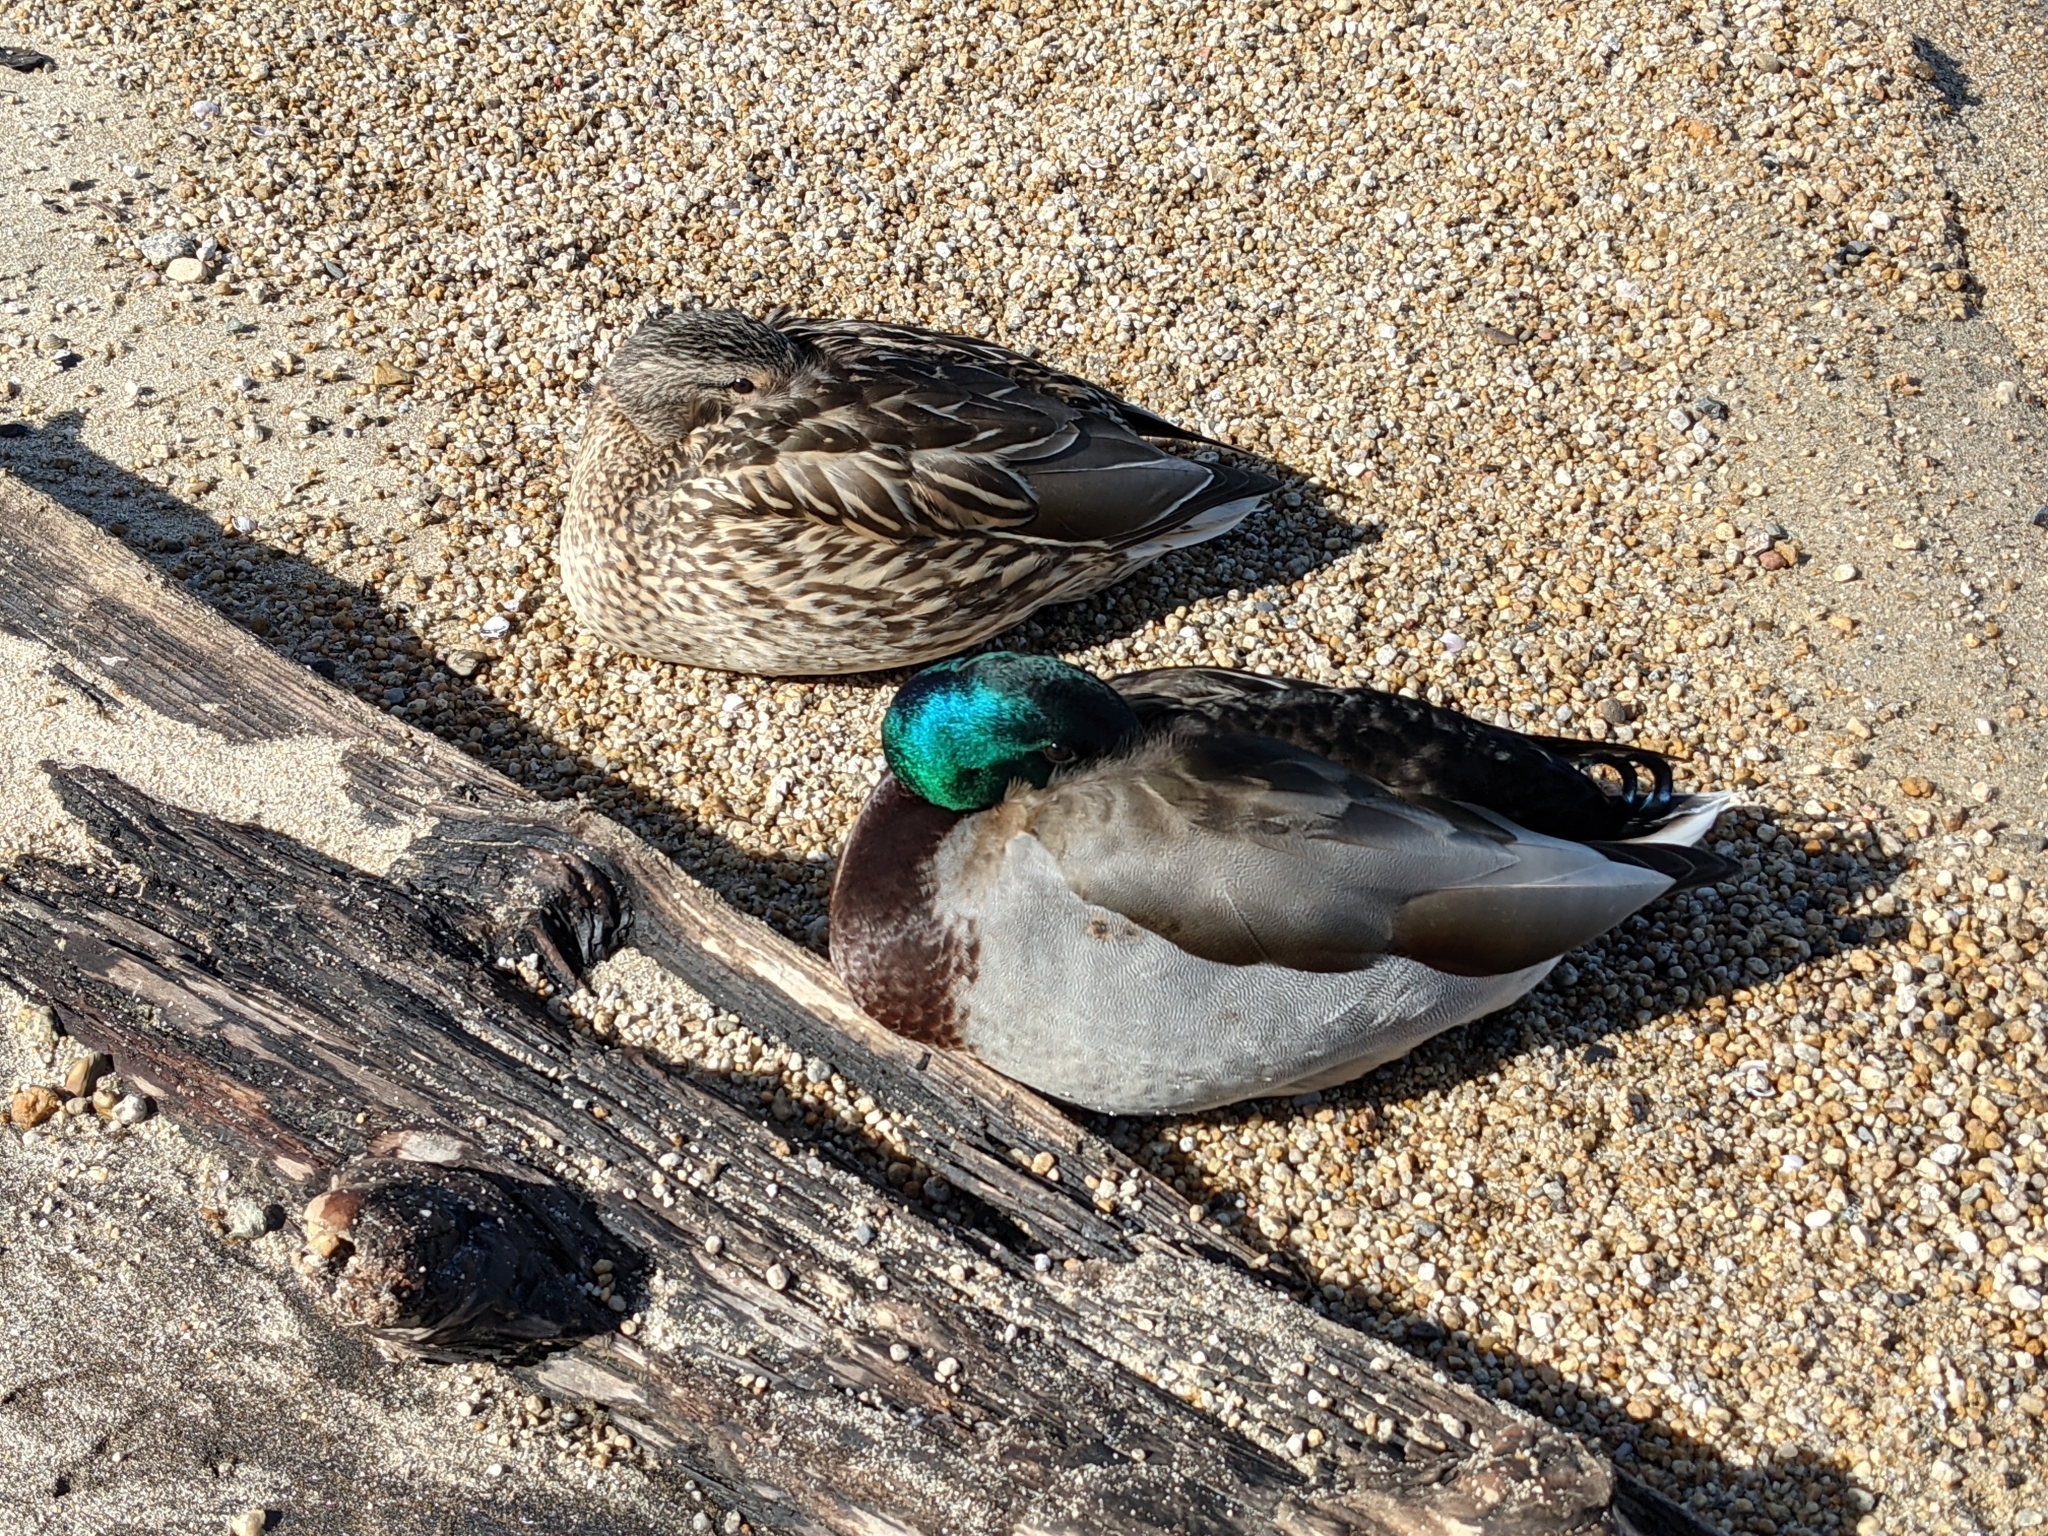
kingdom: Animalia
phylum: Chordata
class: Aves
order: Anseriformes
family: Anatidae
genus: Anas
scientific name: Anas platyrhynchos
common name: Mallard
